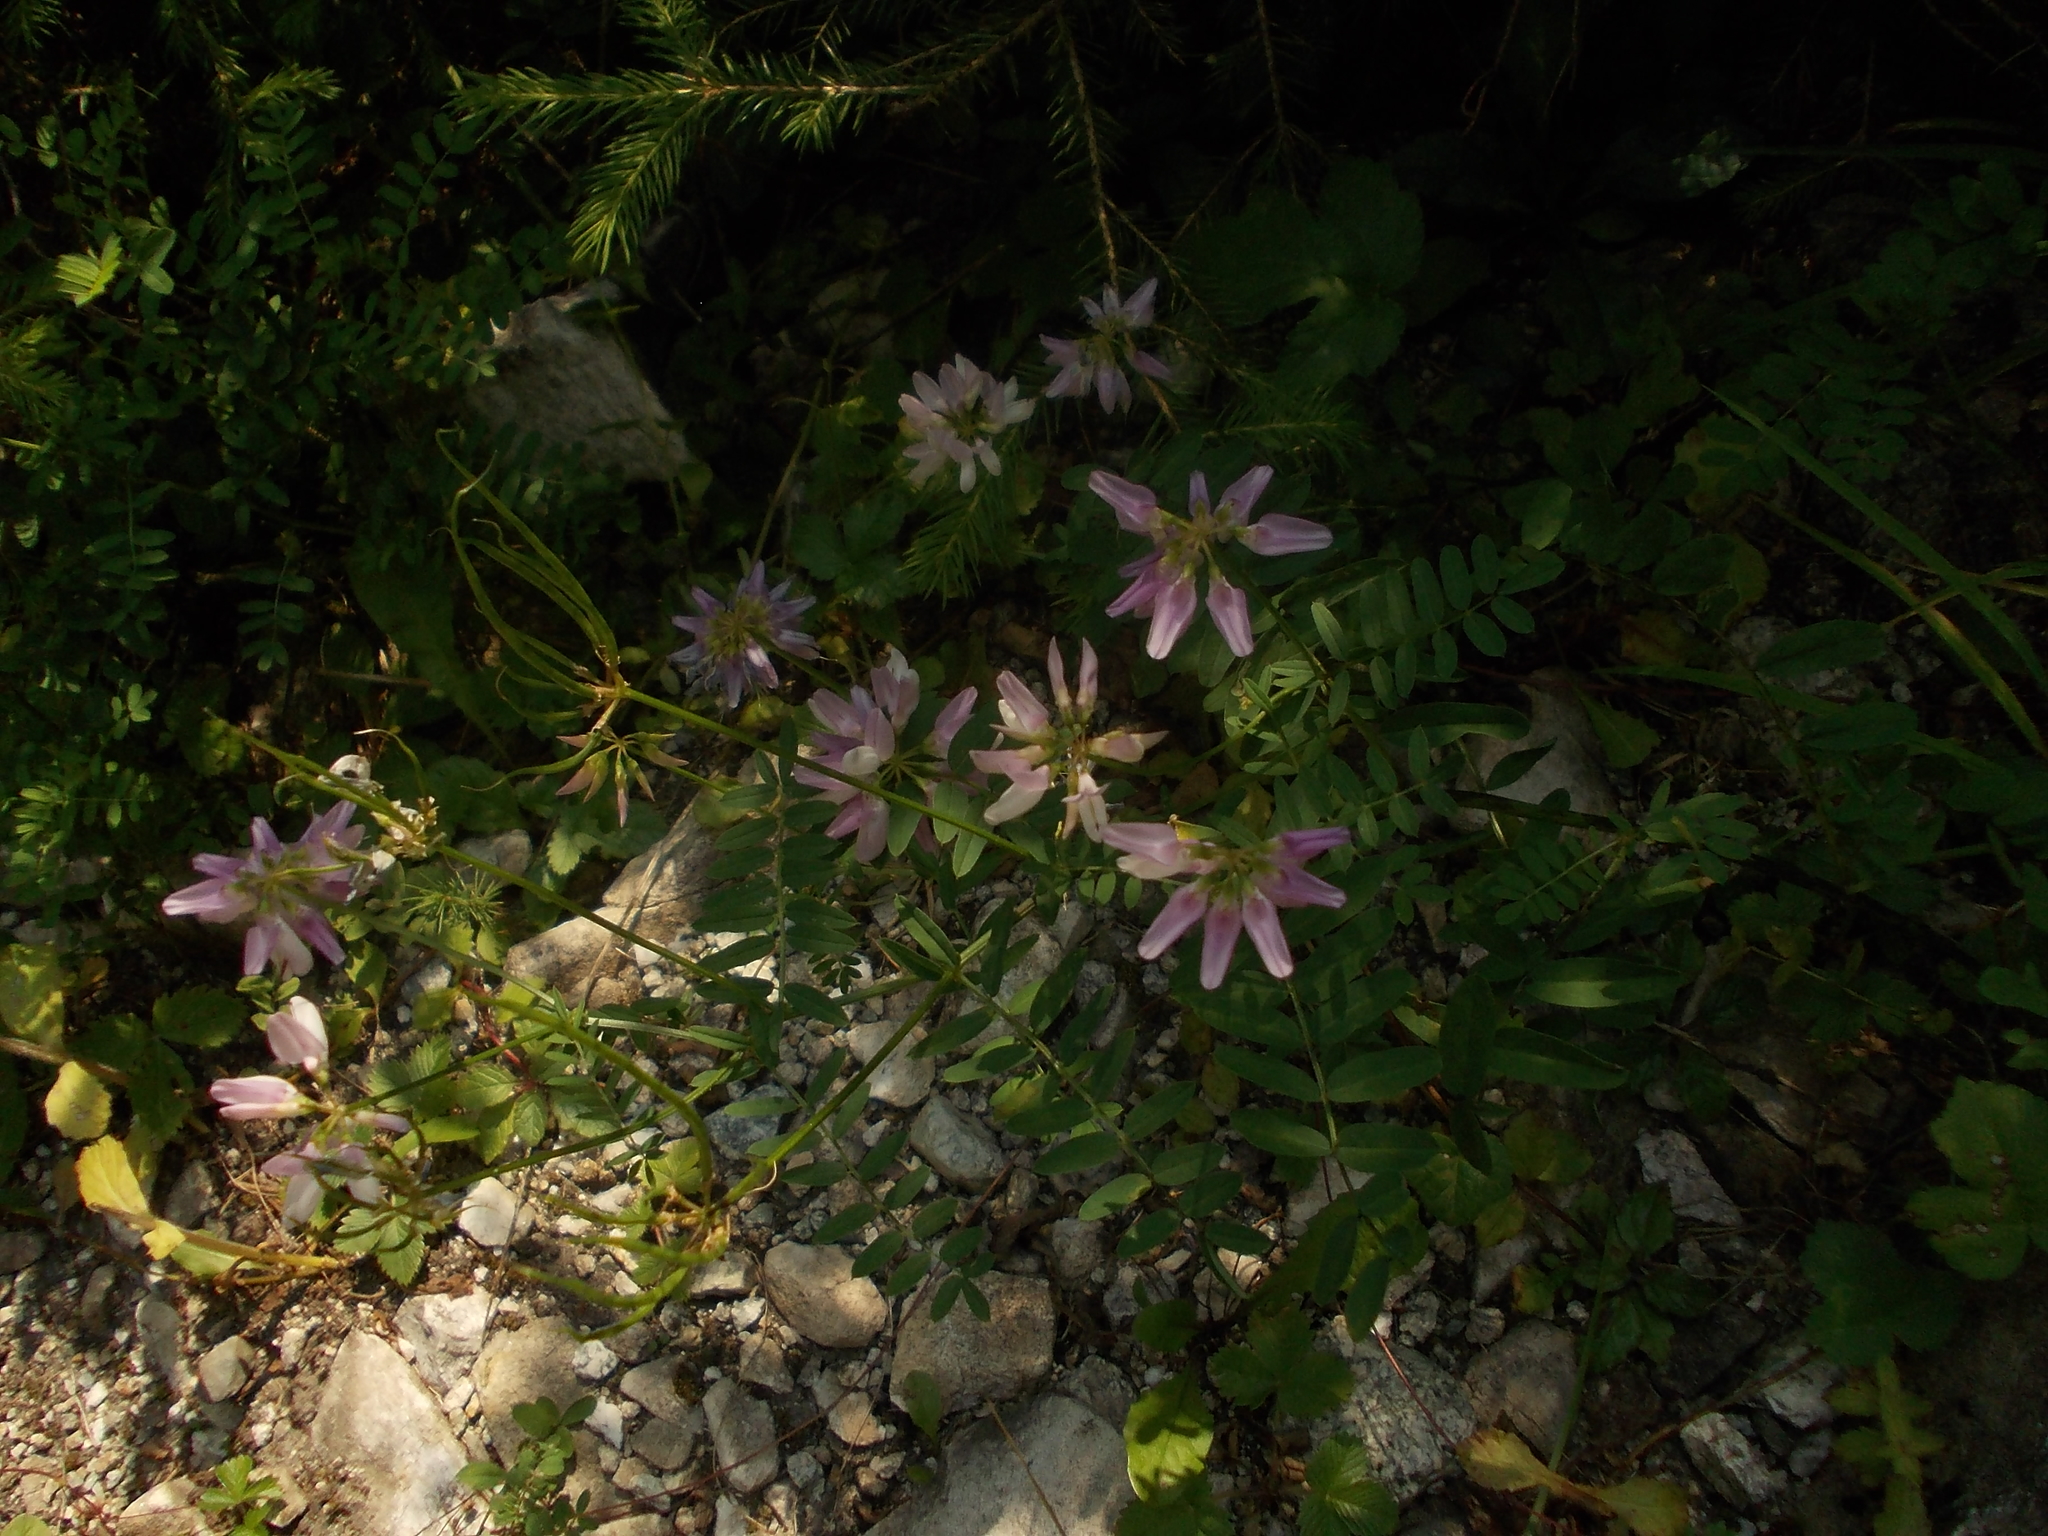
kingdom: Plantae
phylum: Tracheophyta
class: Magnoliopsida
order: Fabales
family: Fabaceae
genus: Coronilla
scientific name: Coronilla varia
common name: Crownvetch
